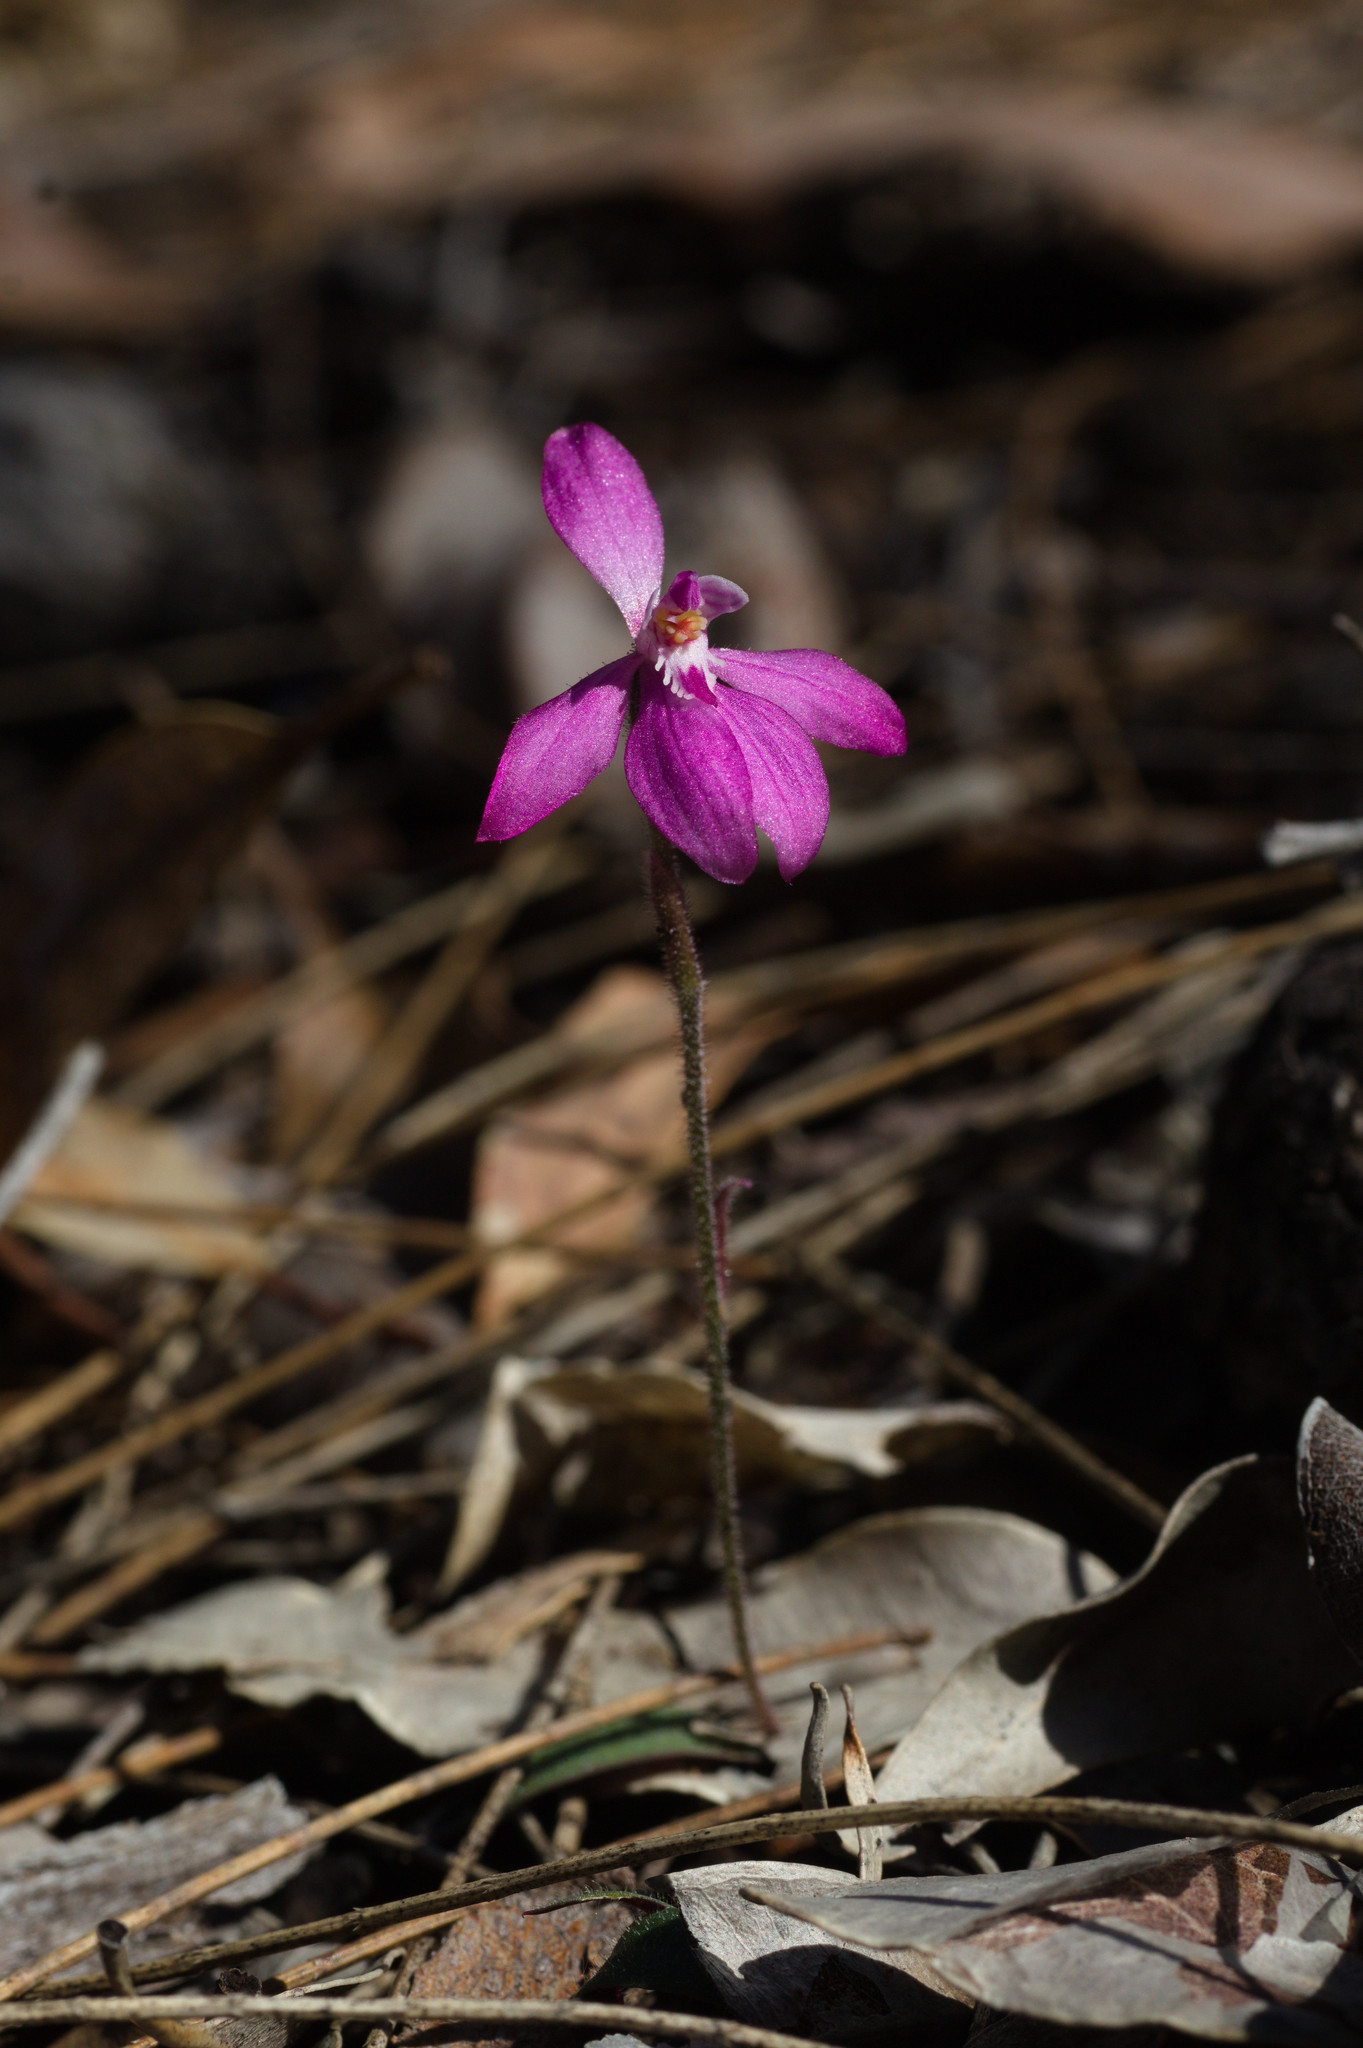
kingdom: Plantae
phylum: Tracheophyta
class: Liliopsida
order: Asparagales
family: Orchidaceae
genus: Caladenia
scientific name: Caladenia reptans
